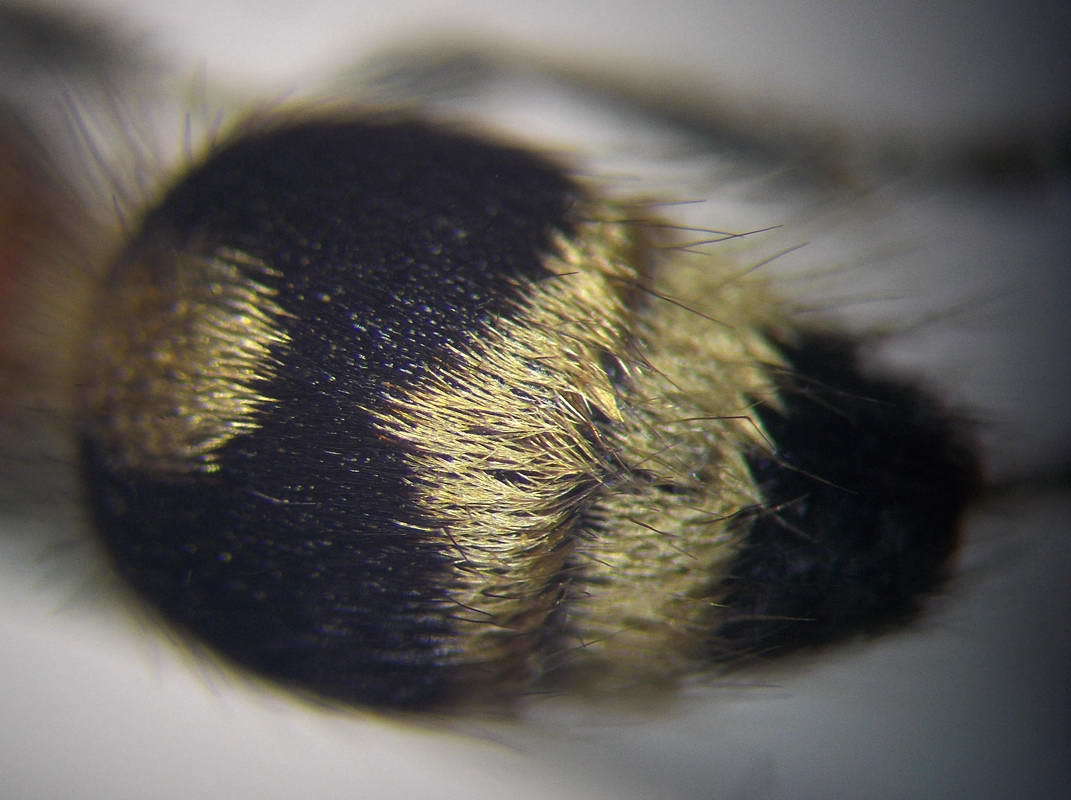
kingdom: Animalia
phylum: Arthropoda
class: Insecta
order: Hymenoptera
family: Mutillidae
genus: Nemka
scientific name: Nemka viduata
